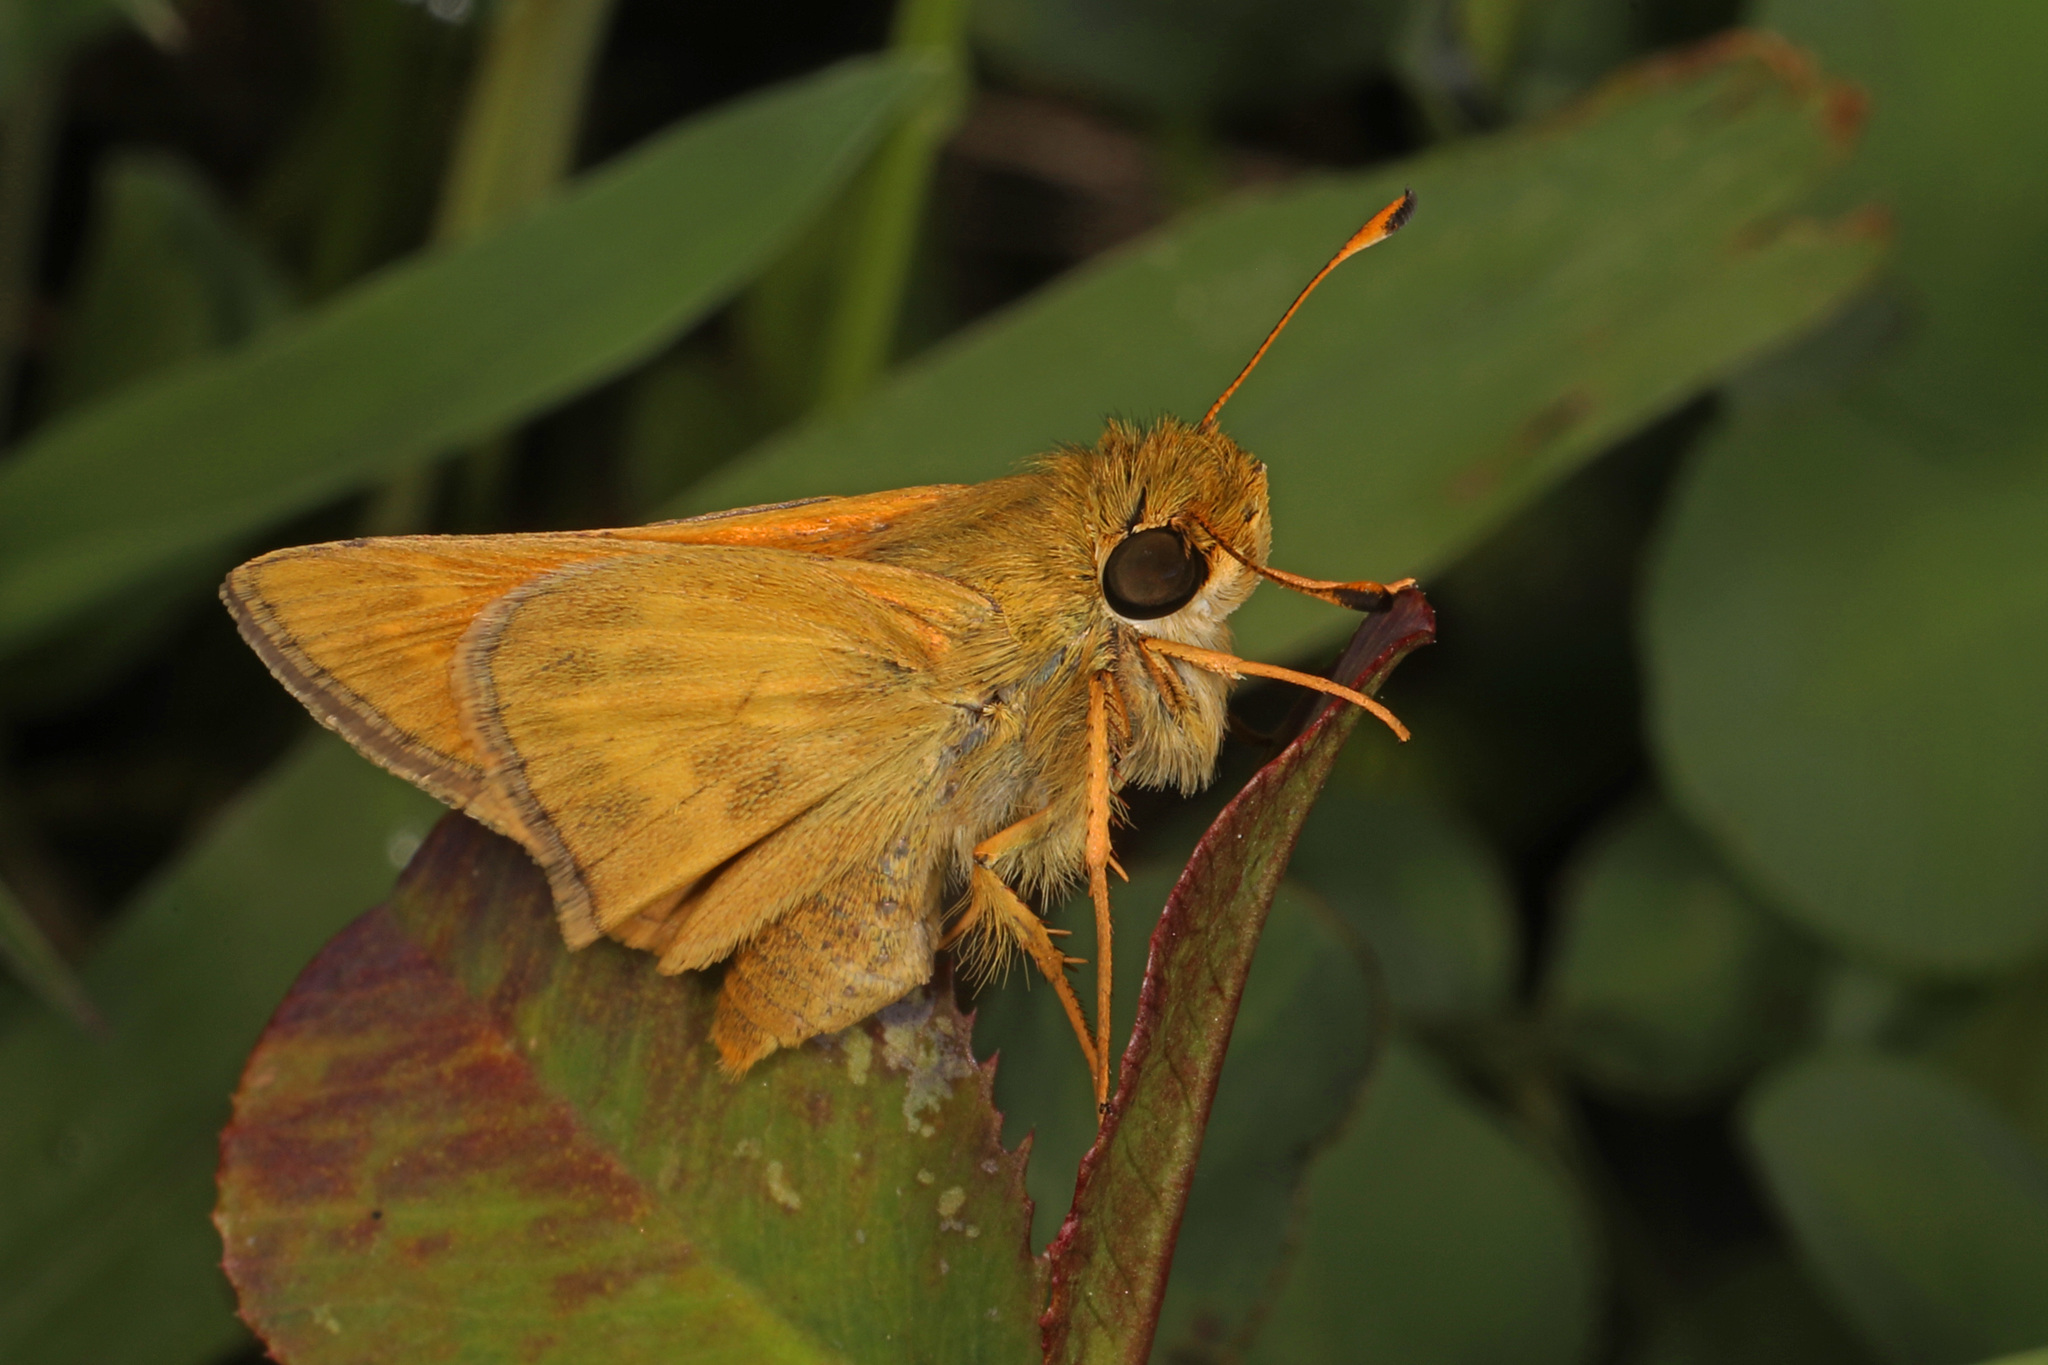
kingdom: Animalia
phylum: Arthropoda
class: Insecta
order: Lepidoptera
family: Hesperiidae
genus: Atalopedes
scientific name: Atalopedes
